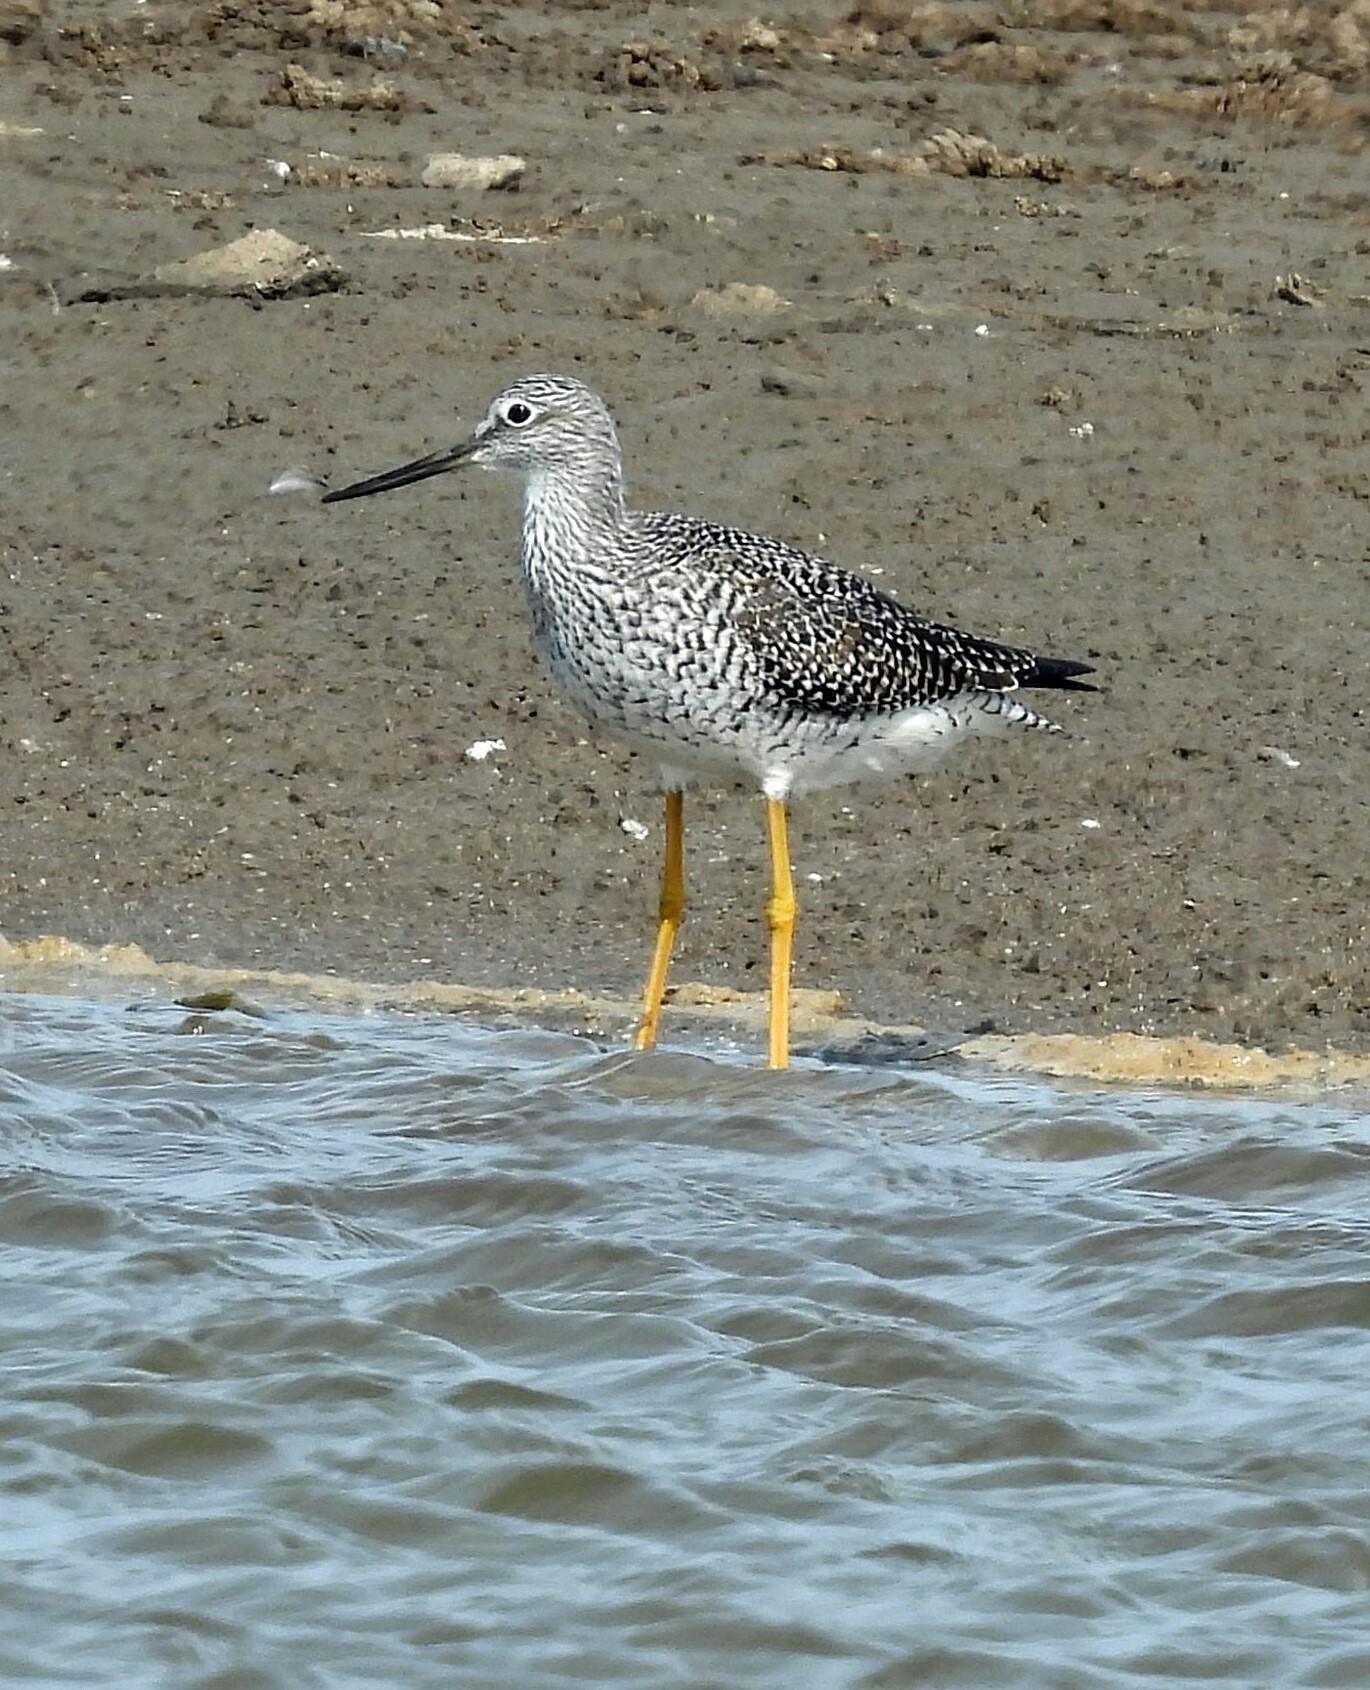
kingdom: Animalia
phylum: Chordata
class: Aves
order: Charadriiformes
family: Scolopacidae
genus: Tringa
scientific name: Tringa melanoleuca
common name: Greater yellowlegs
